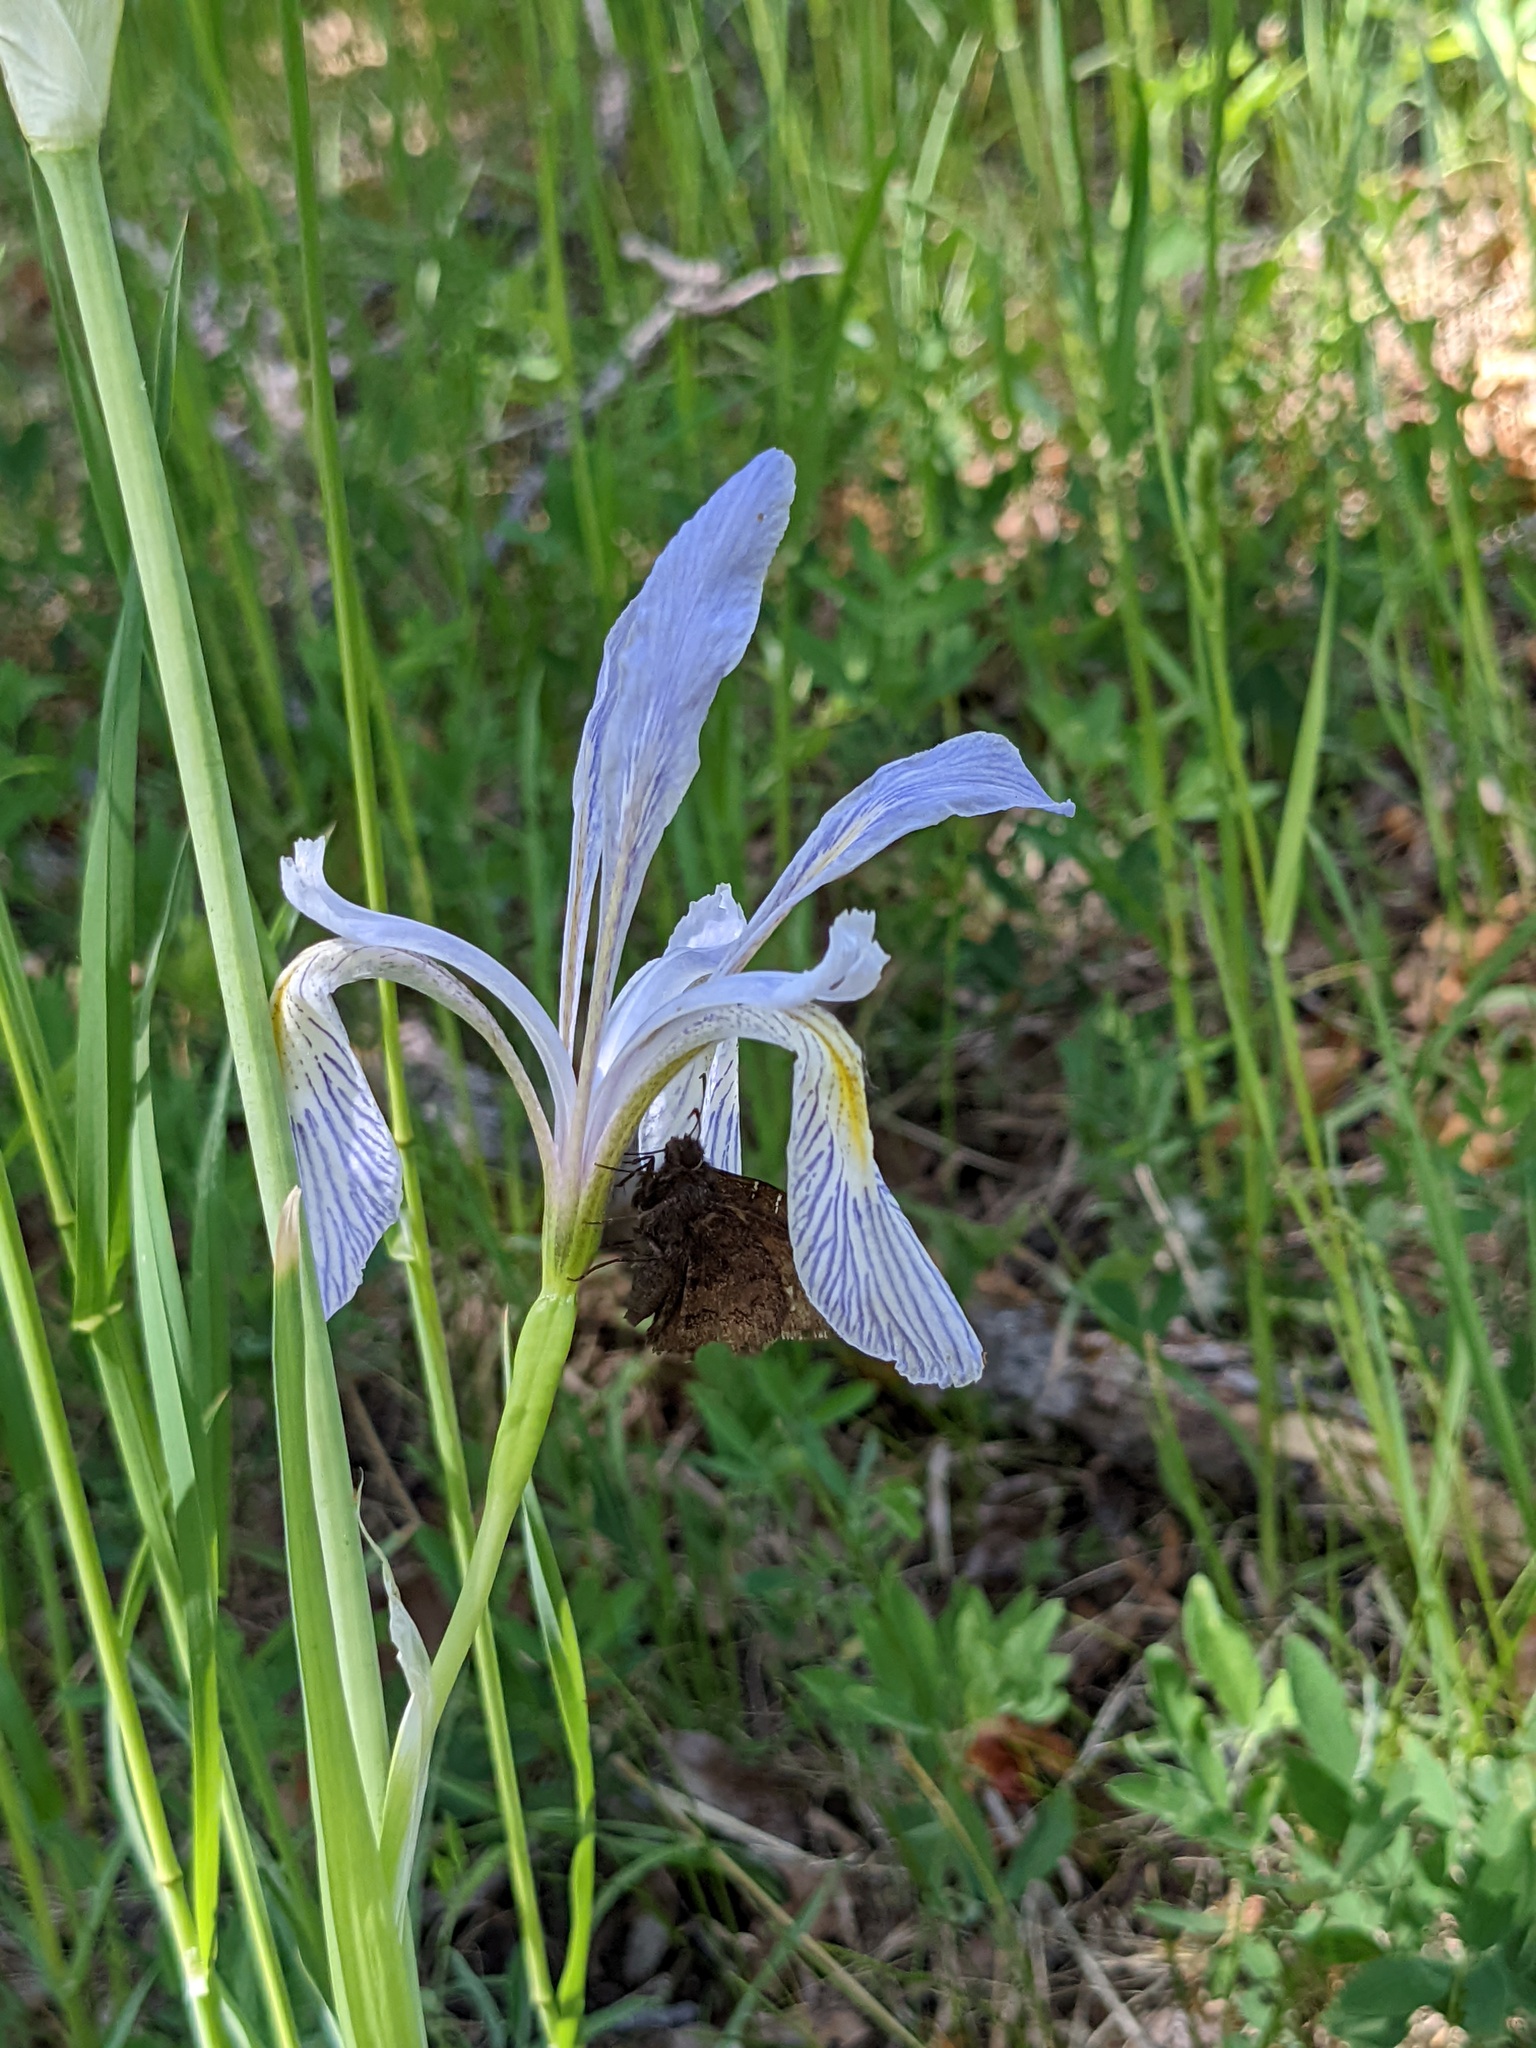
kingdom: Animalia
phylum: Arthropoda
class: Insecta
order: Lepidoptera
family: Hesperiidae
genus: Thorybes
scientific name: Thorybes pylades
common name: Northern cloudywing
